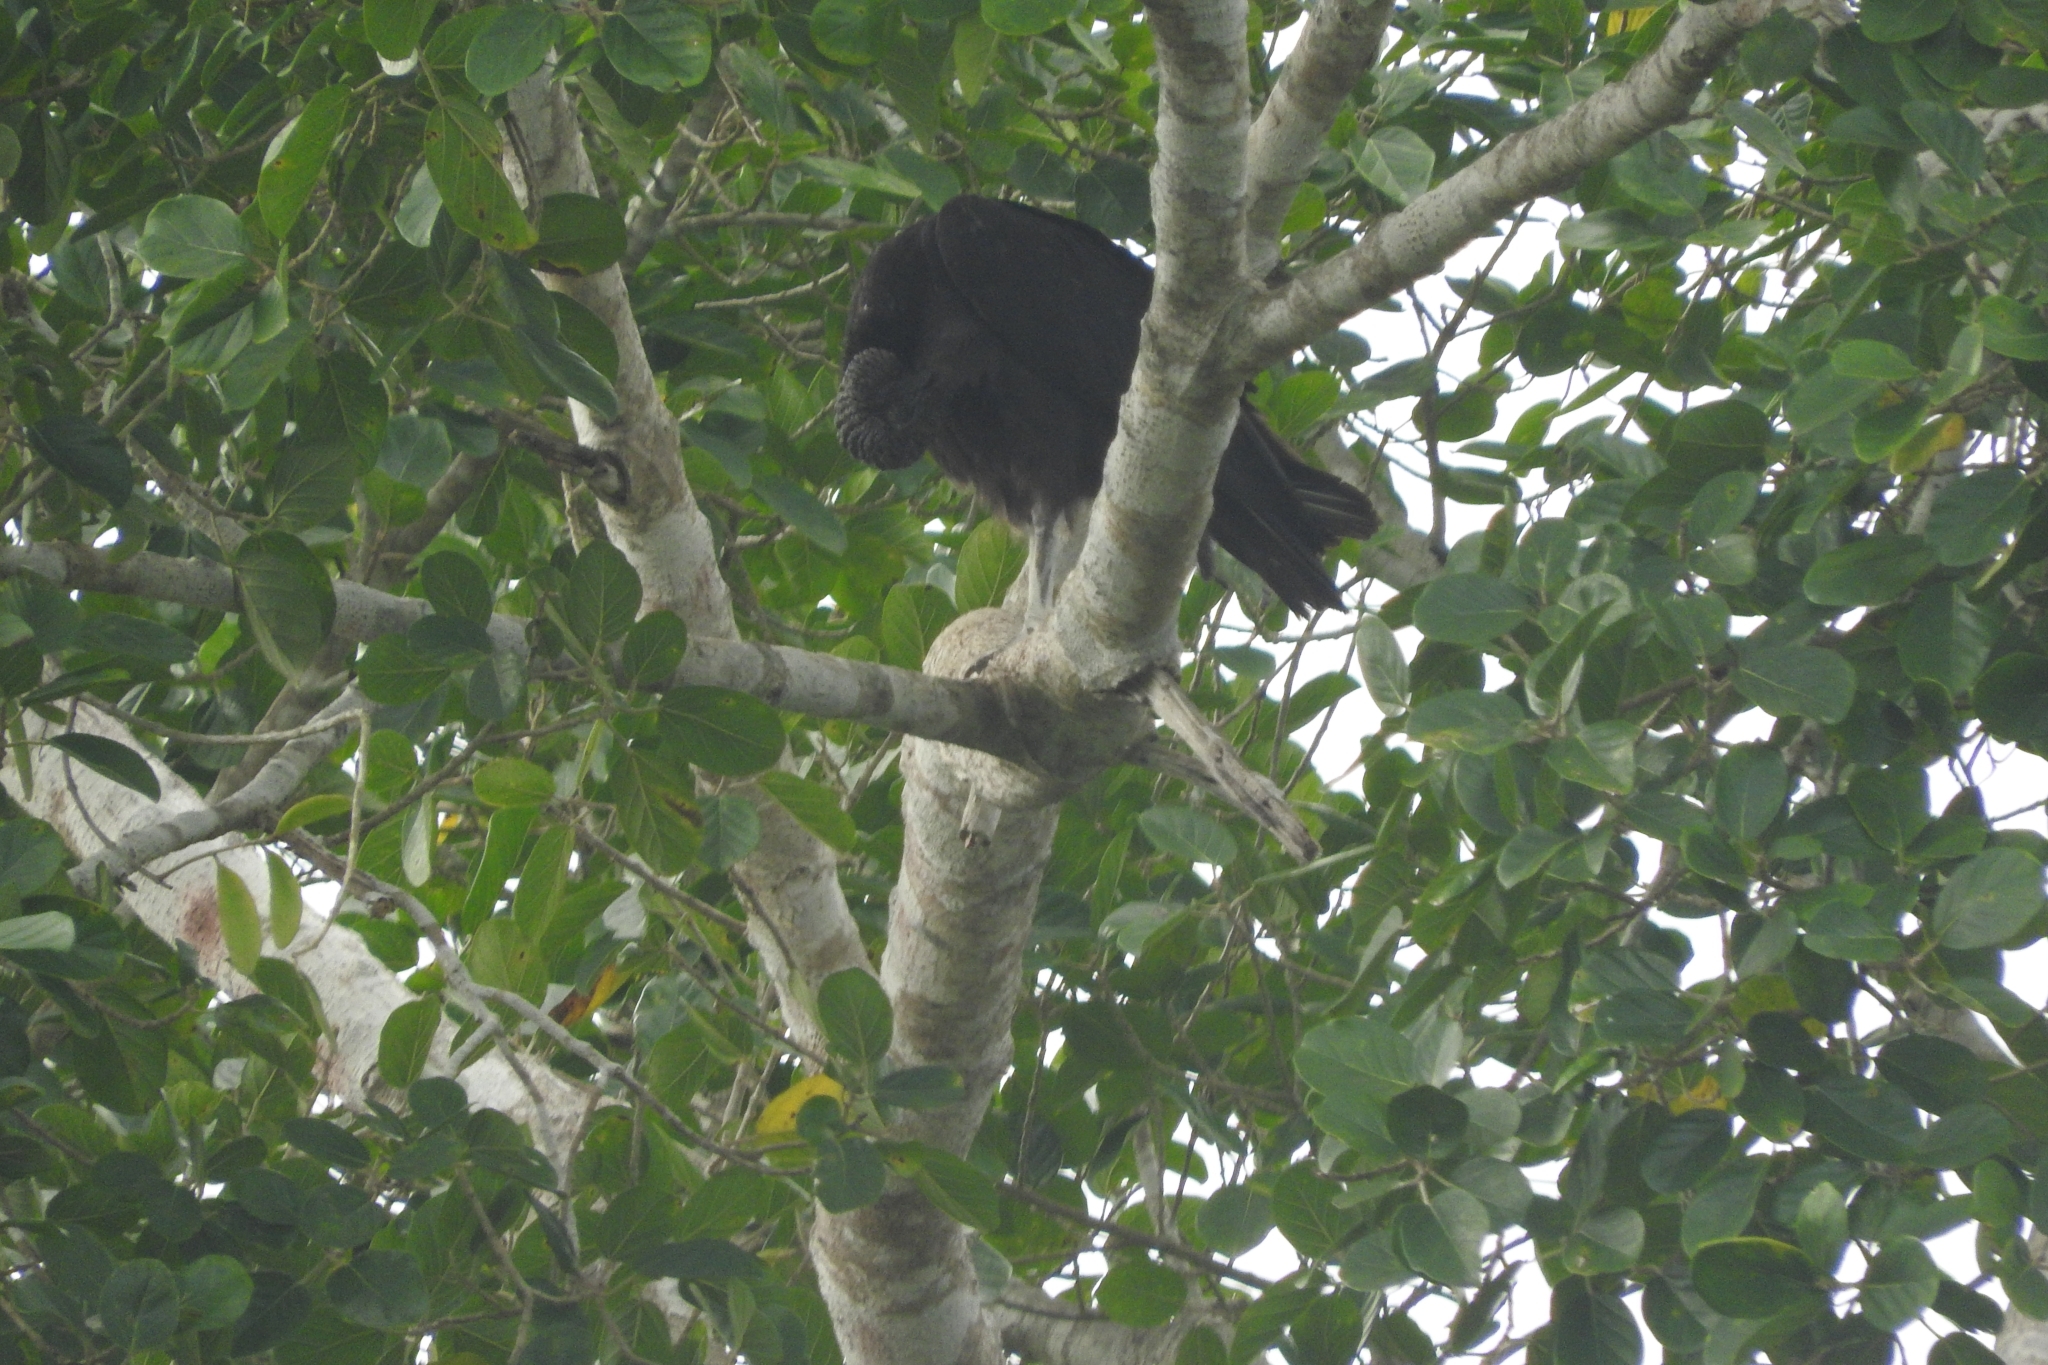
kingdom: Animalia
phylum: Chordata
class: Aves
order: Accipitriformes
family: Cathartidae
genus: Coragyps
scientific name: Coragyps atratus
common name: Black vulture
